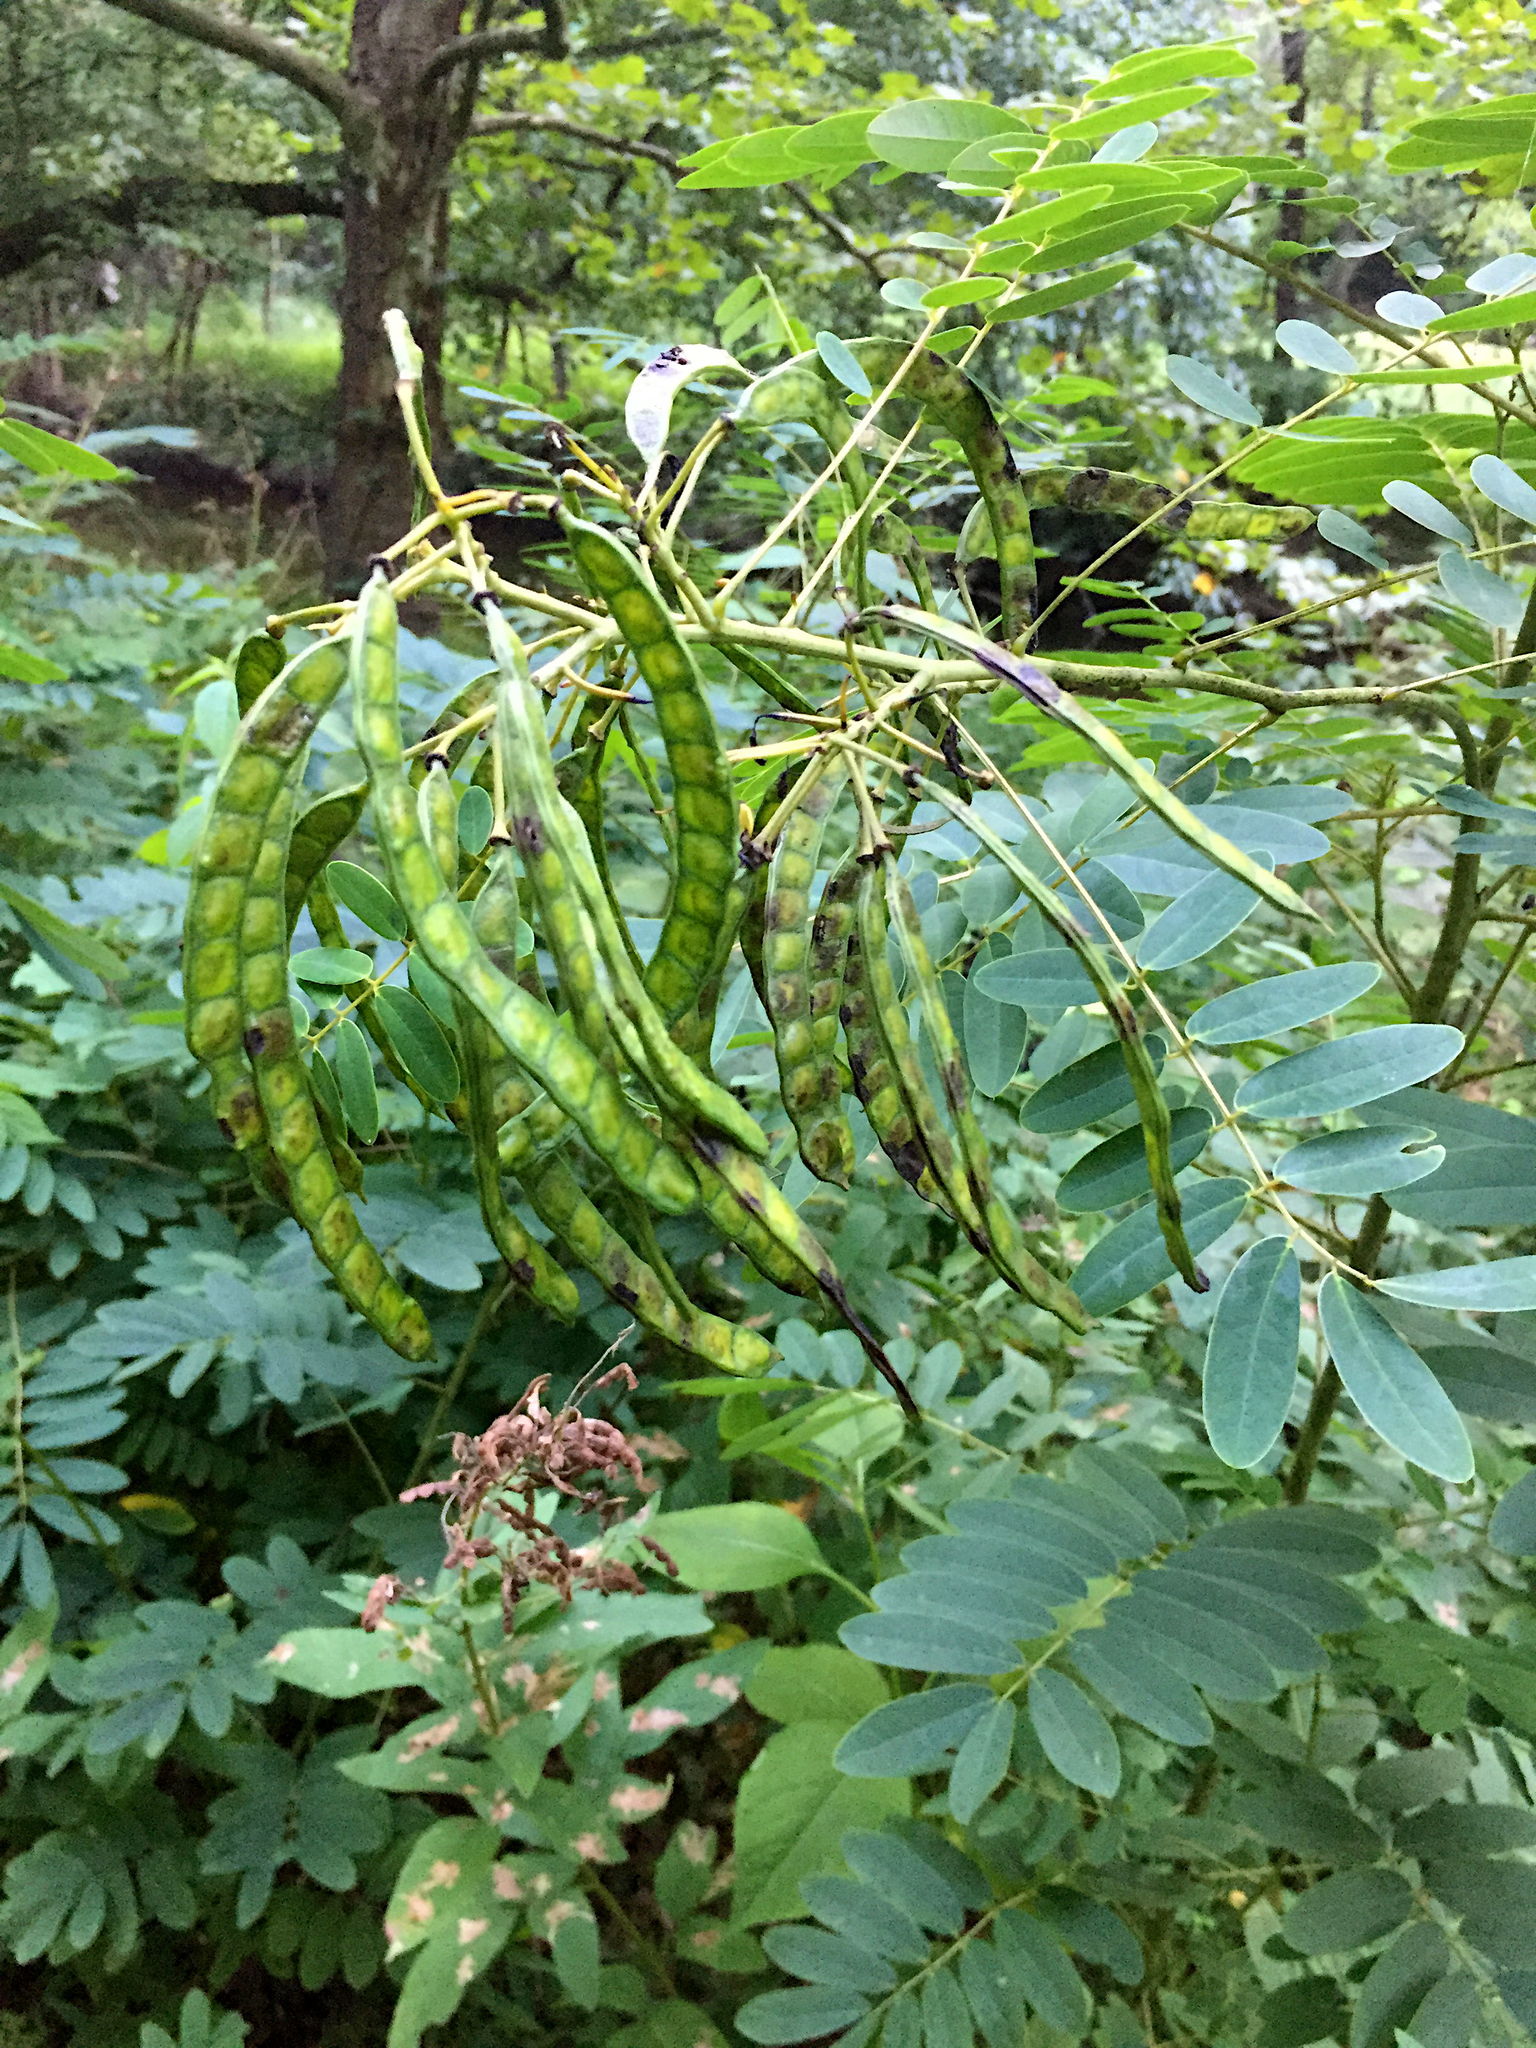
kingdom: Plantae
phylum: Tracheophyta
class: Magnoliopsida
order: Fabales
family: Fabaceae
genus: Senna
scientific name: Senna hebecarpa
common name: Wild senna
